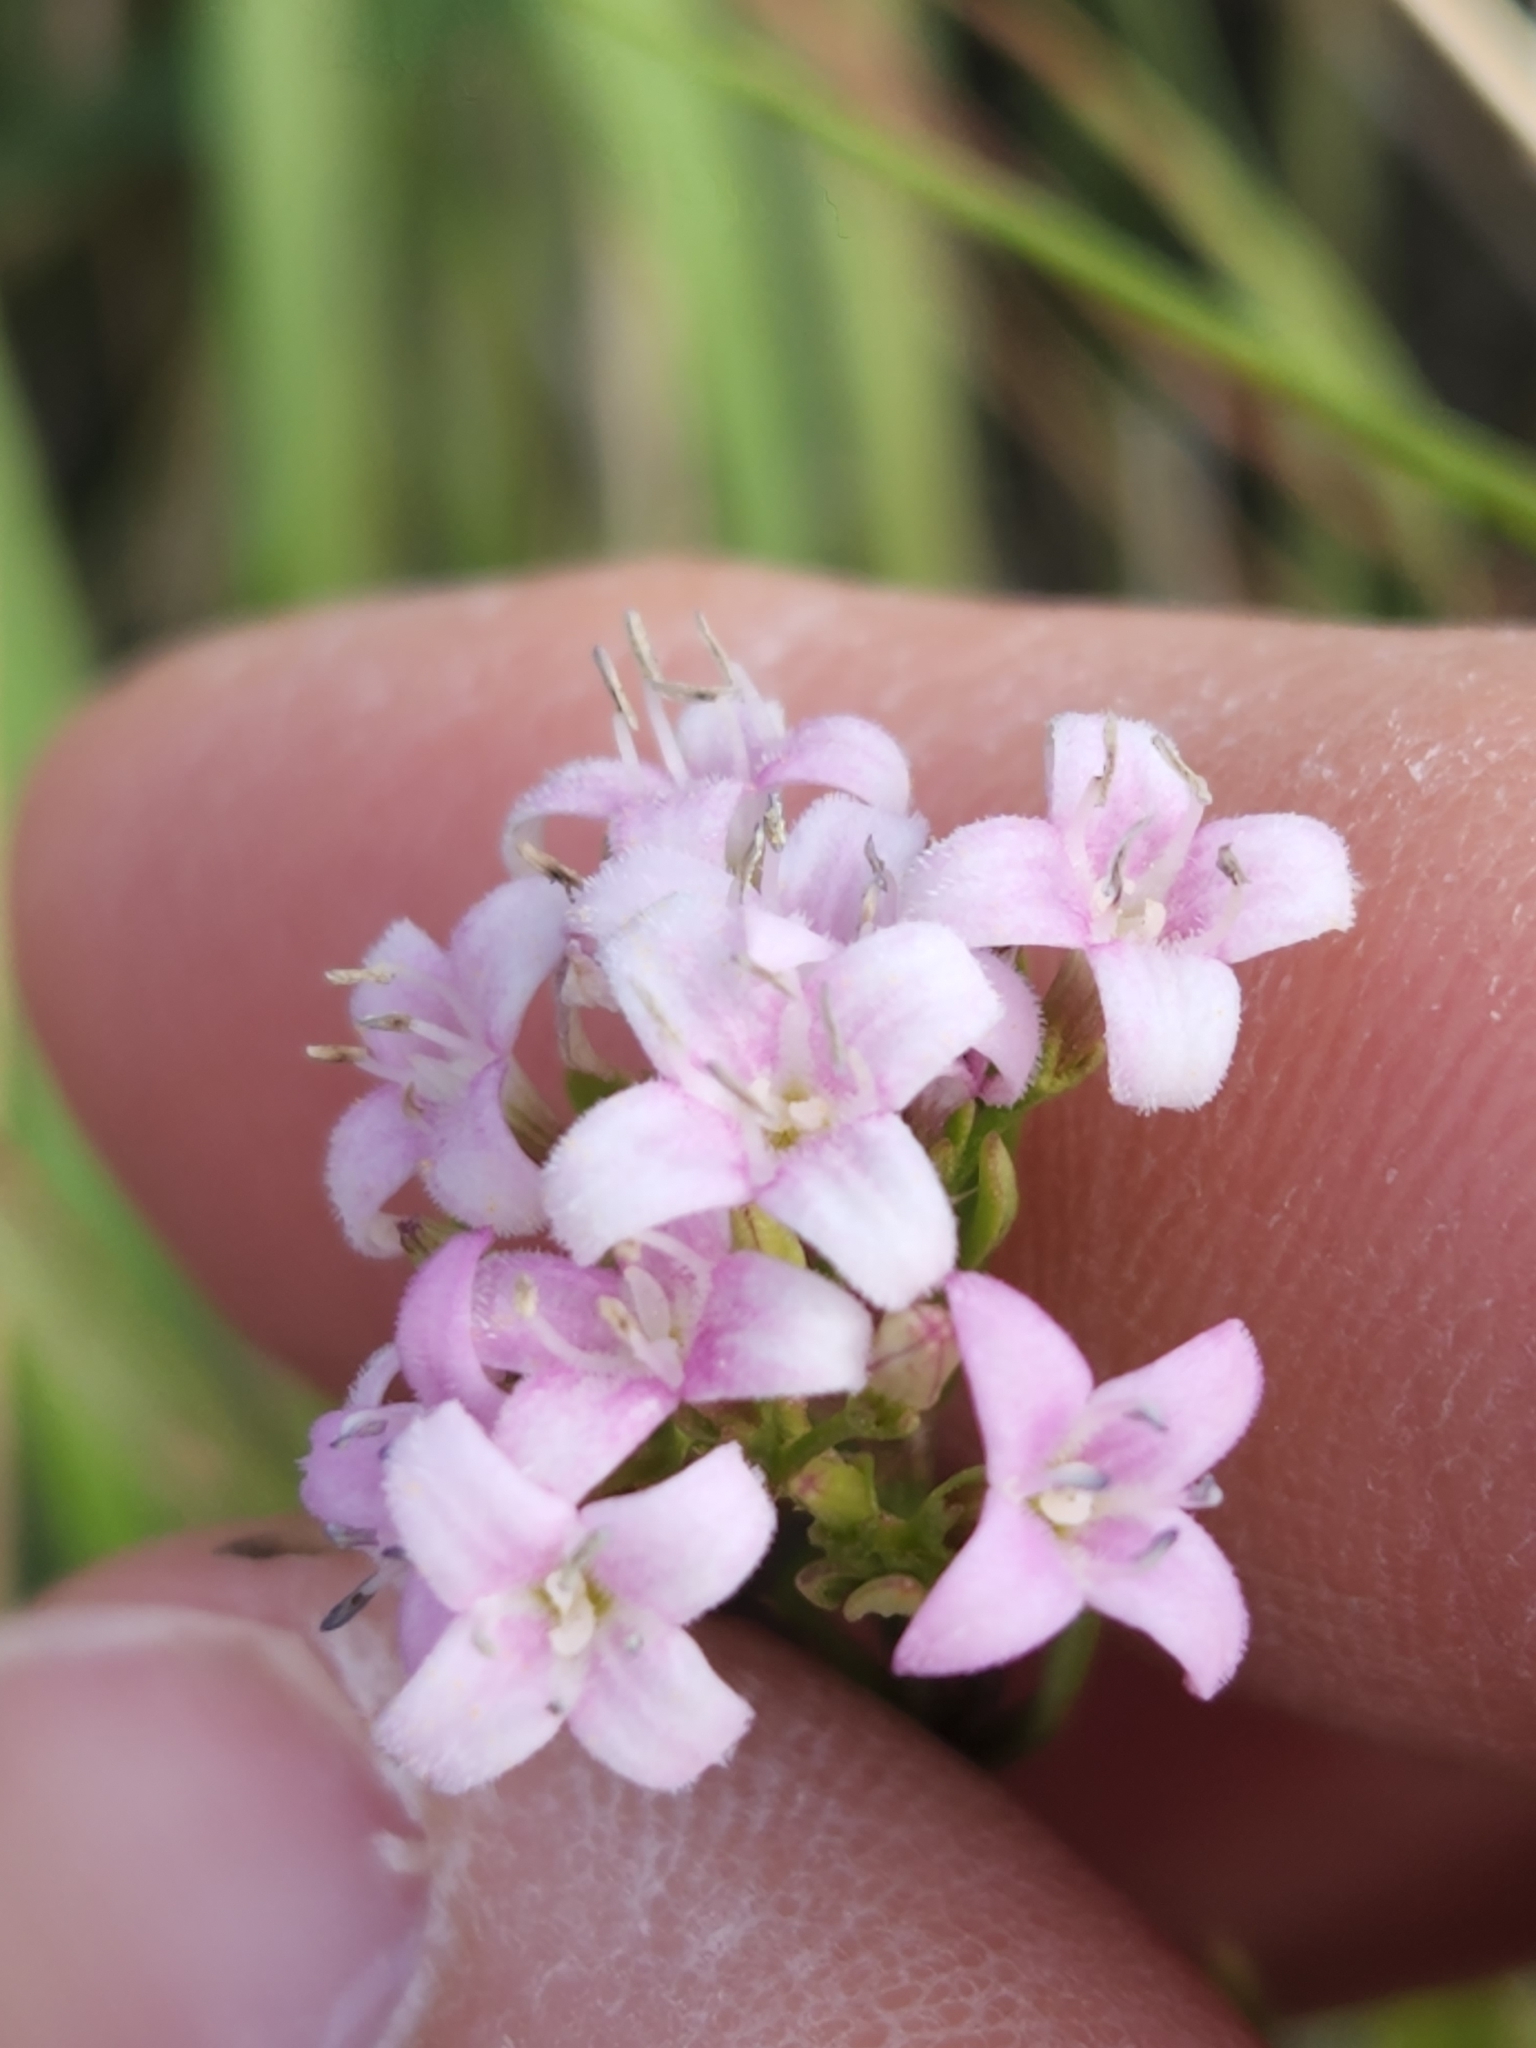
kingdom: Plantae
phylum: Tracheophyta
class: Magnoliopsida
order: Gentianales
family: Rubiaceae
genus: Stenaria
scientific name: Stenaria nigricans
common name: Diamondflowers
